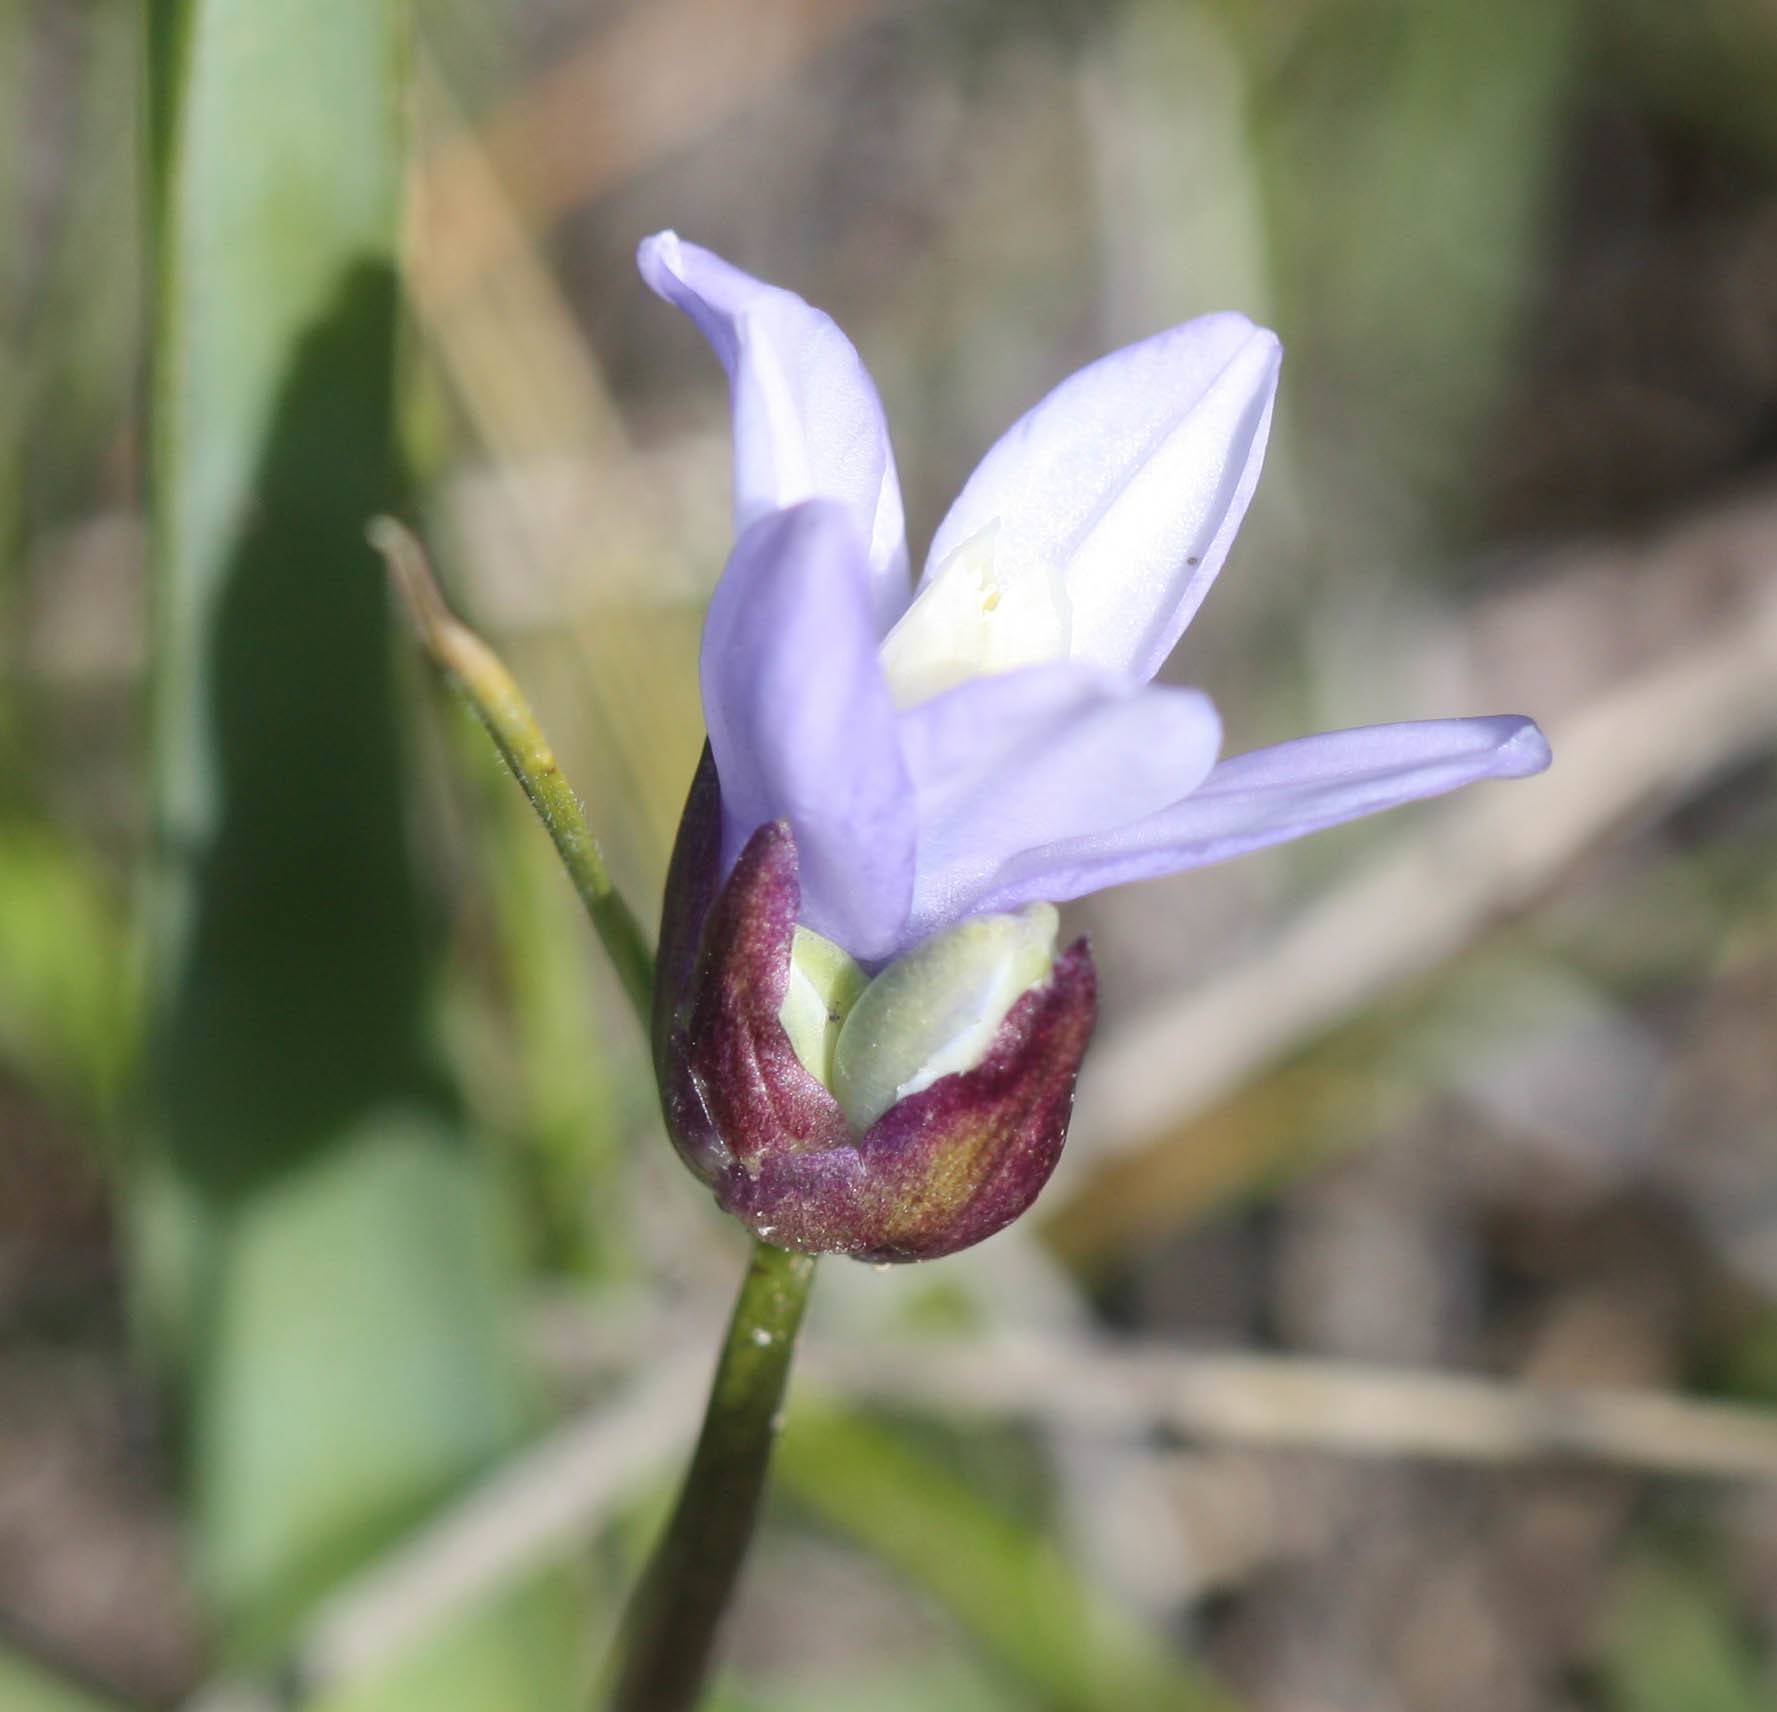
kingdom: Plantae
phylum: Tracheophyta
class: Liliopsida
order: Asparagales
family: Asparagaceae
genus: Dipterostemon
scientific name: Dipterostemon capitatus
